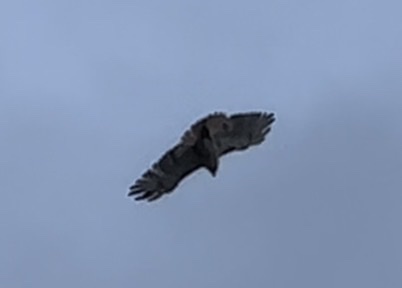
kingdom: Animalia
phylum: Chordata
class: Aves
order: Accipitriformes
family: Accipitridae
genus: Buteo
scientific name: Buteo jamaicensis
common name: Red-tailed hawk
